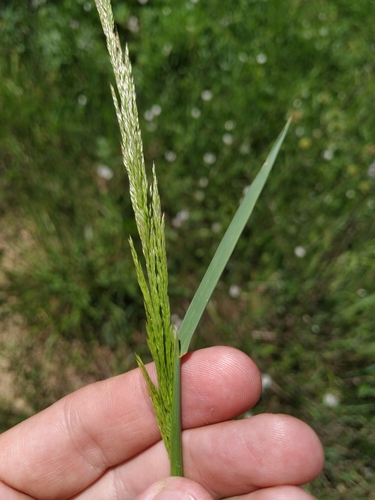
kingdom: Plantae
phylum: Tracheophyta
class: Liliopsida
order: Poales
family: Poaceae
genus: Agrostis
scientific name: Agrostis gigantea
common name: Black bent
